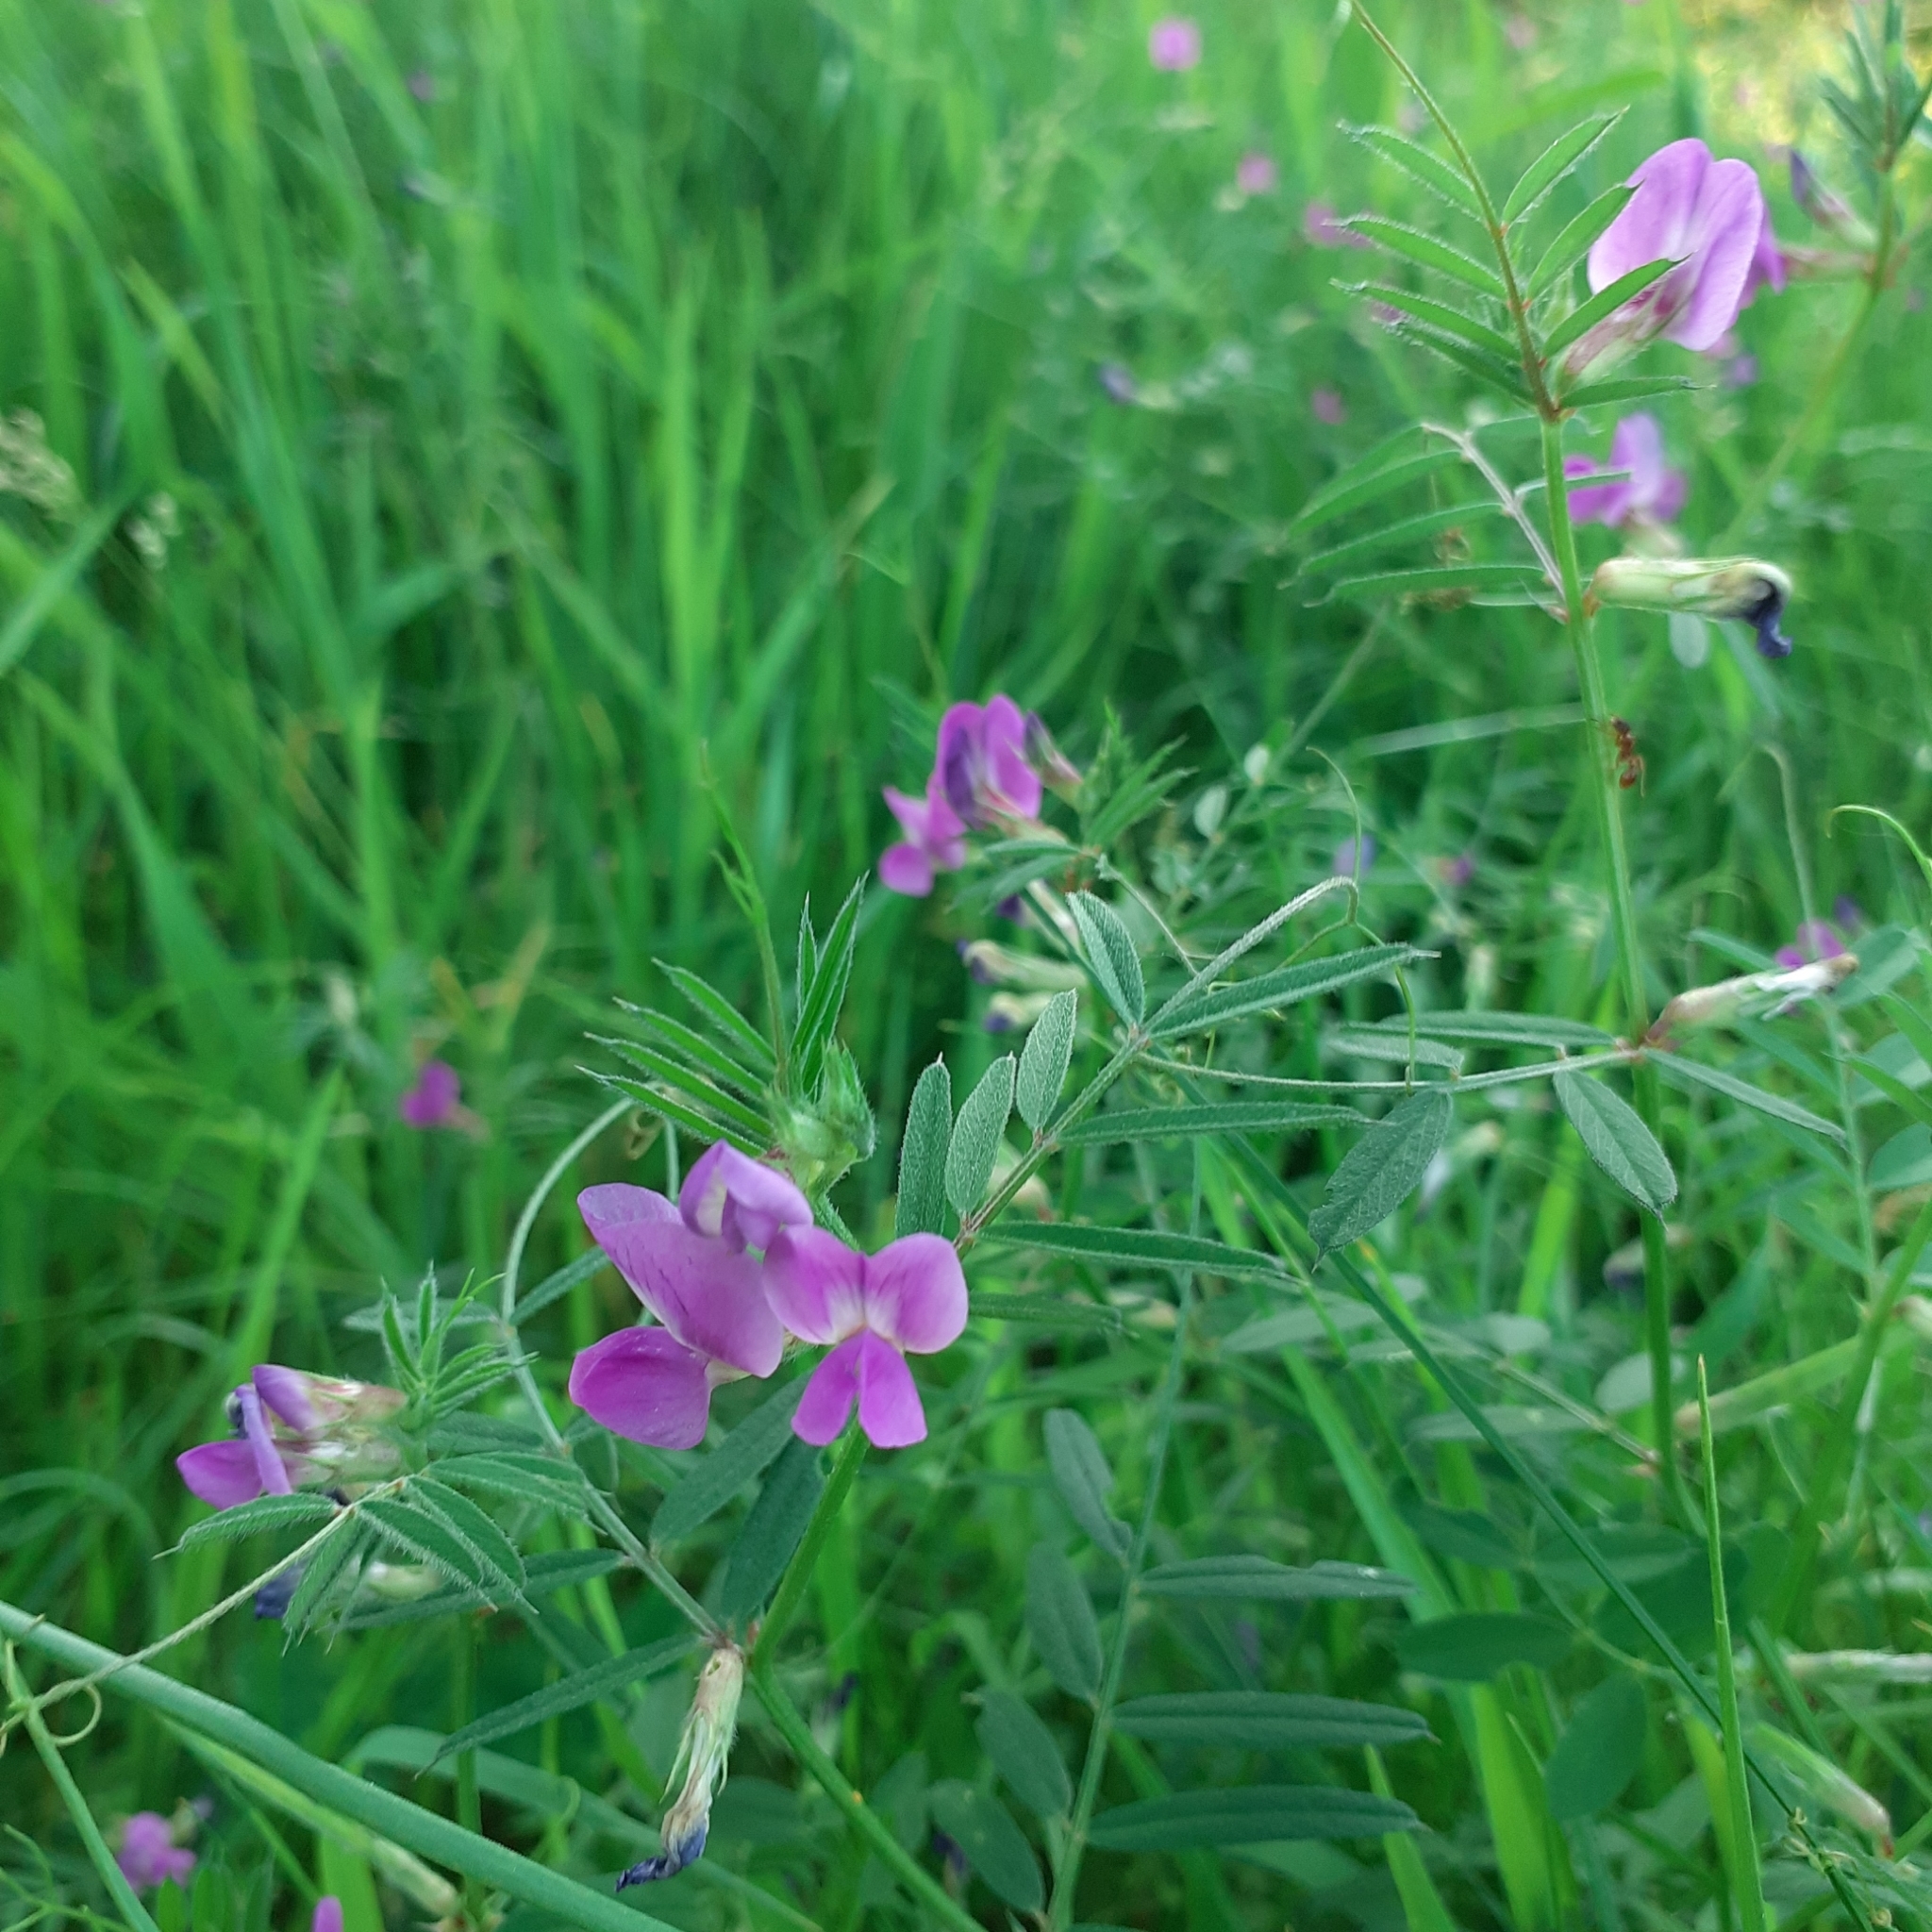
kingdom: Plantae
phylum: Tracheophyta
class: Magnoliopsida
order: Fabales
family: Fabaceae
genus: Vicia
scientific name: Vicia sativa
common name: Garden vetch
